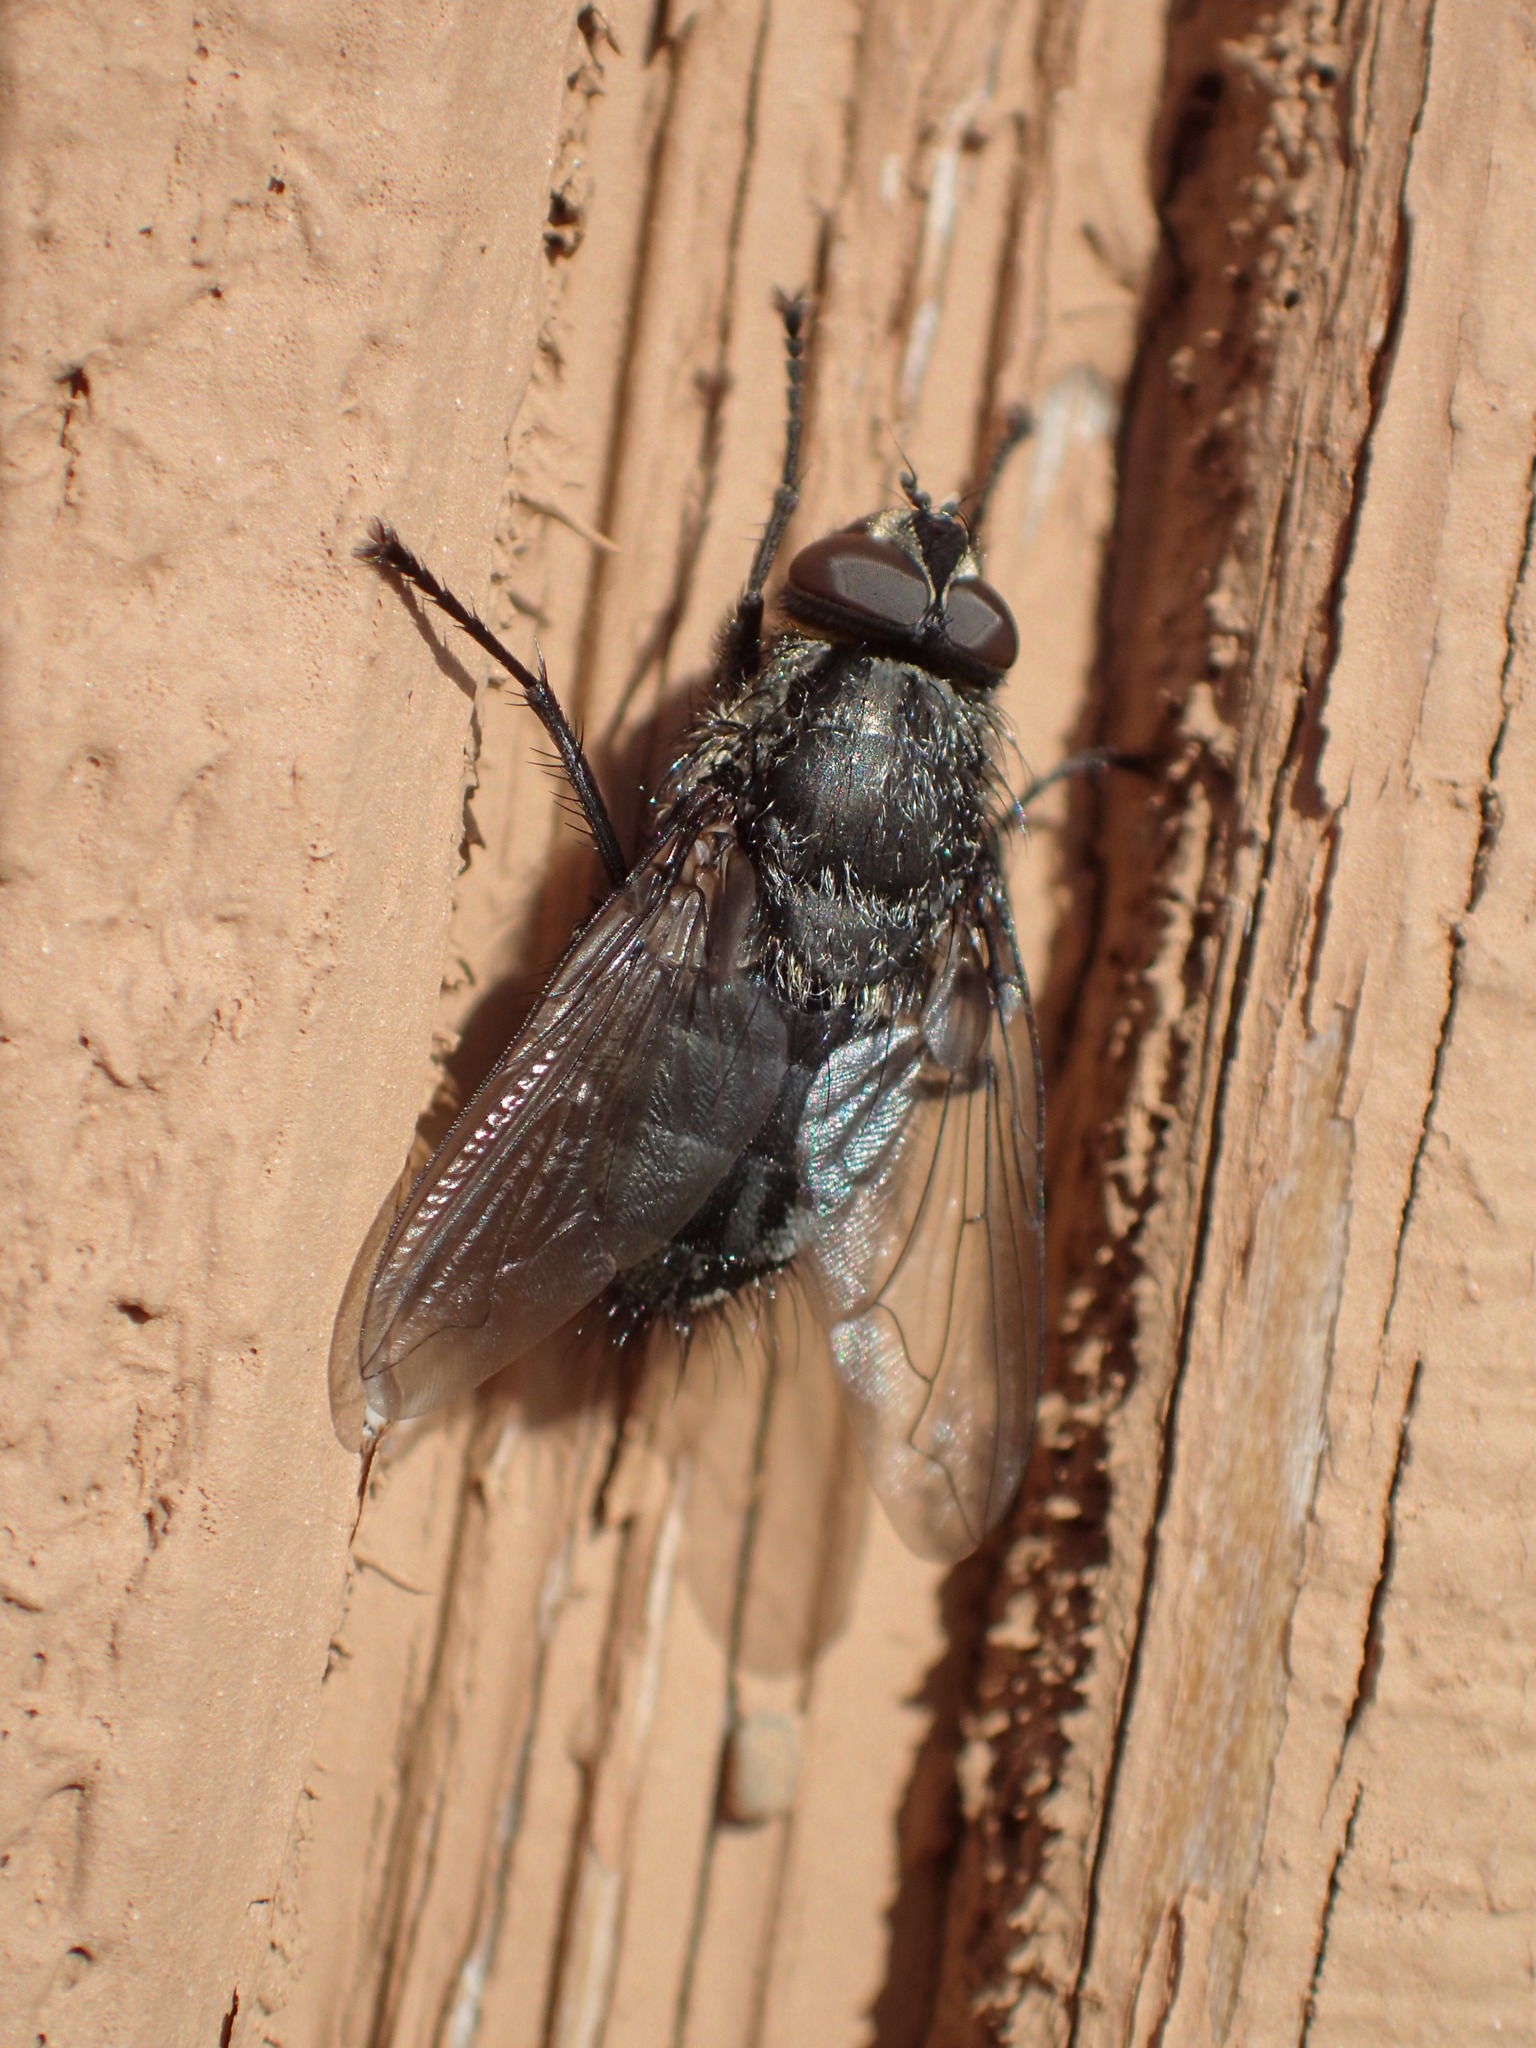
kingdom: Animalia
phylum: Arthropoda
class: Insecta
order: Diptera
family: Polleniidae
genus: Pollenia
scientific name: Pollenia vagabunda
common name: Vagabund cluster fly
